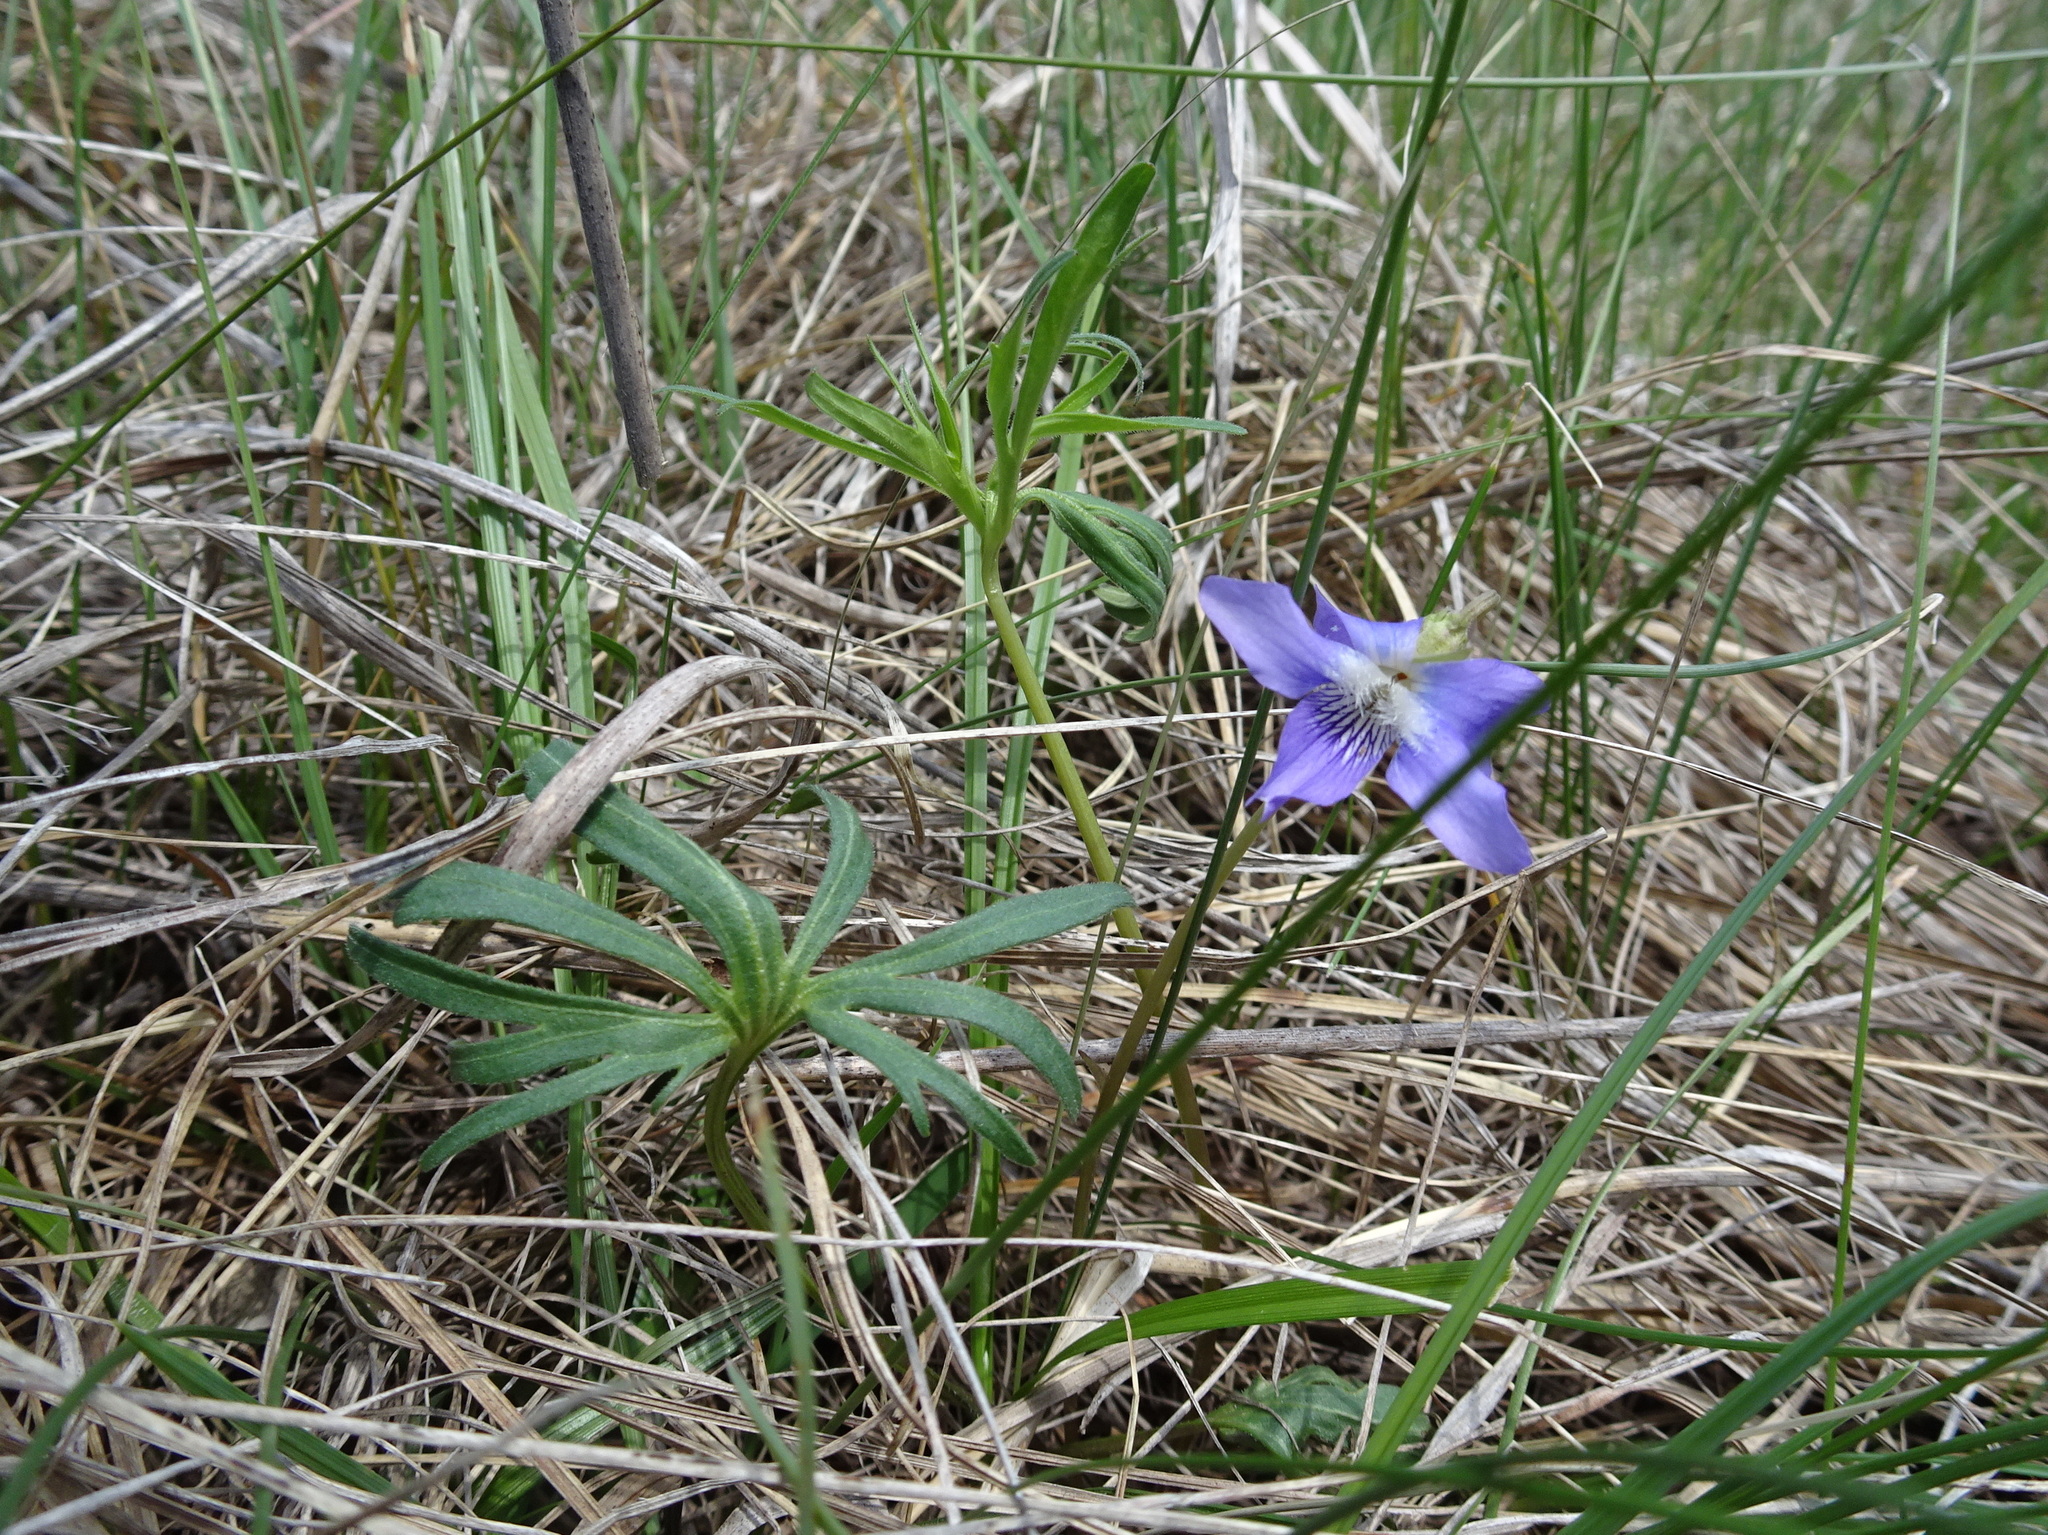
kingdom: Plantae
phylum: Tracheophyta
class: Magnoliopsida
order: Malpighiales
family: Violaceae
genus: Viola
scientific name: Viola pedatifida
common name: Prairie violet
